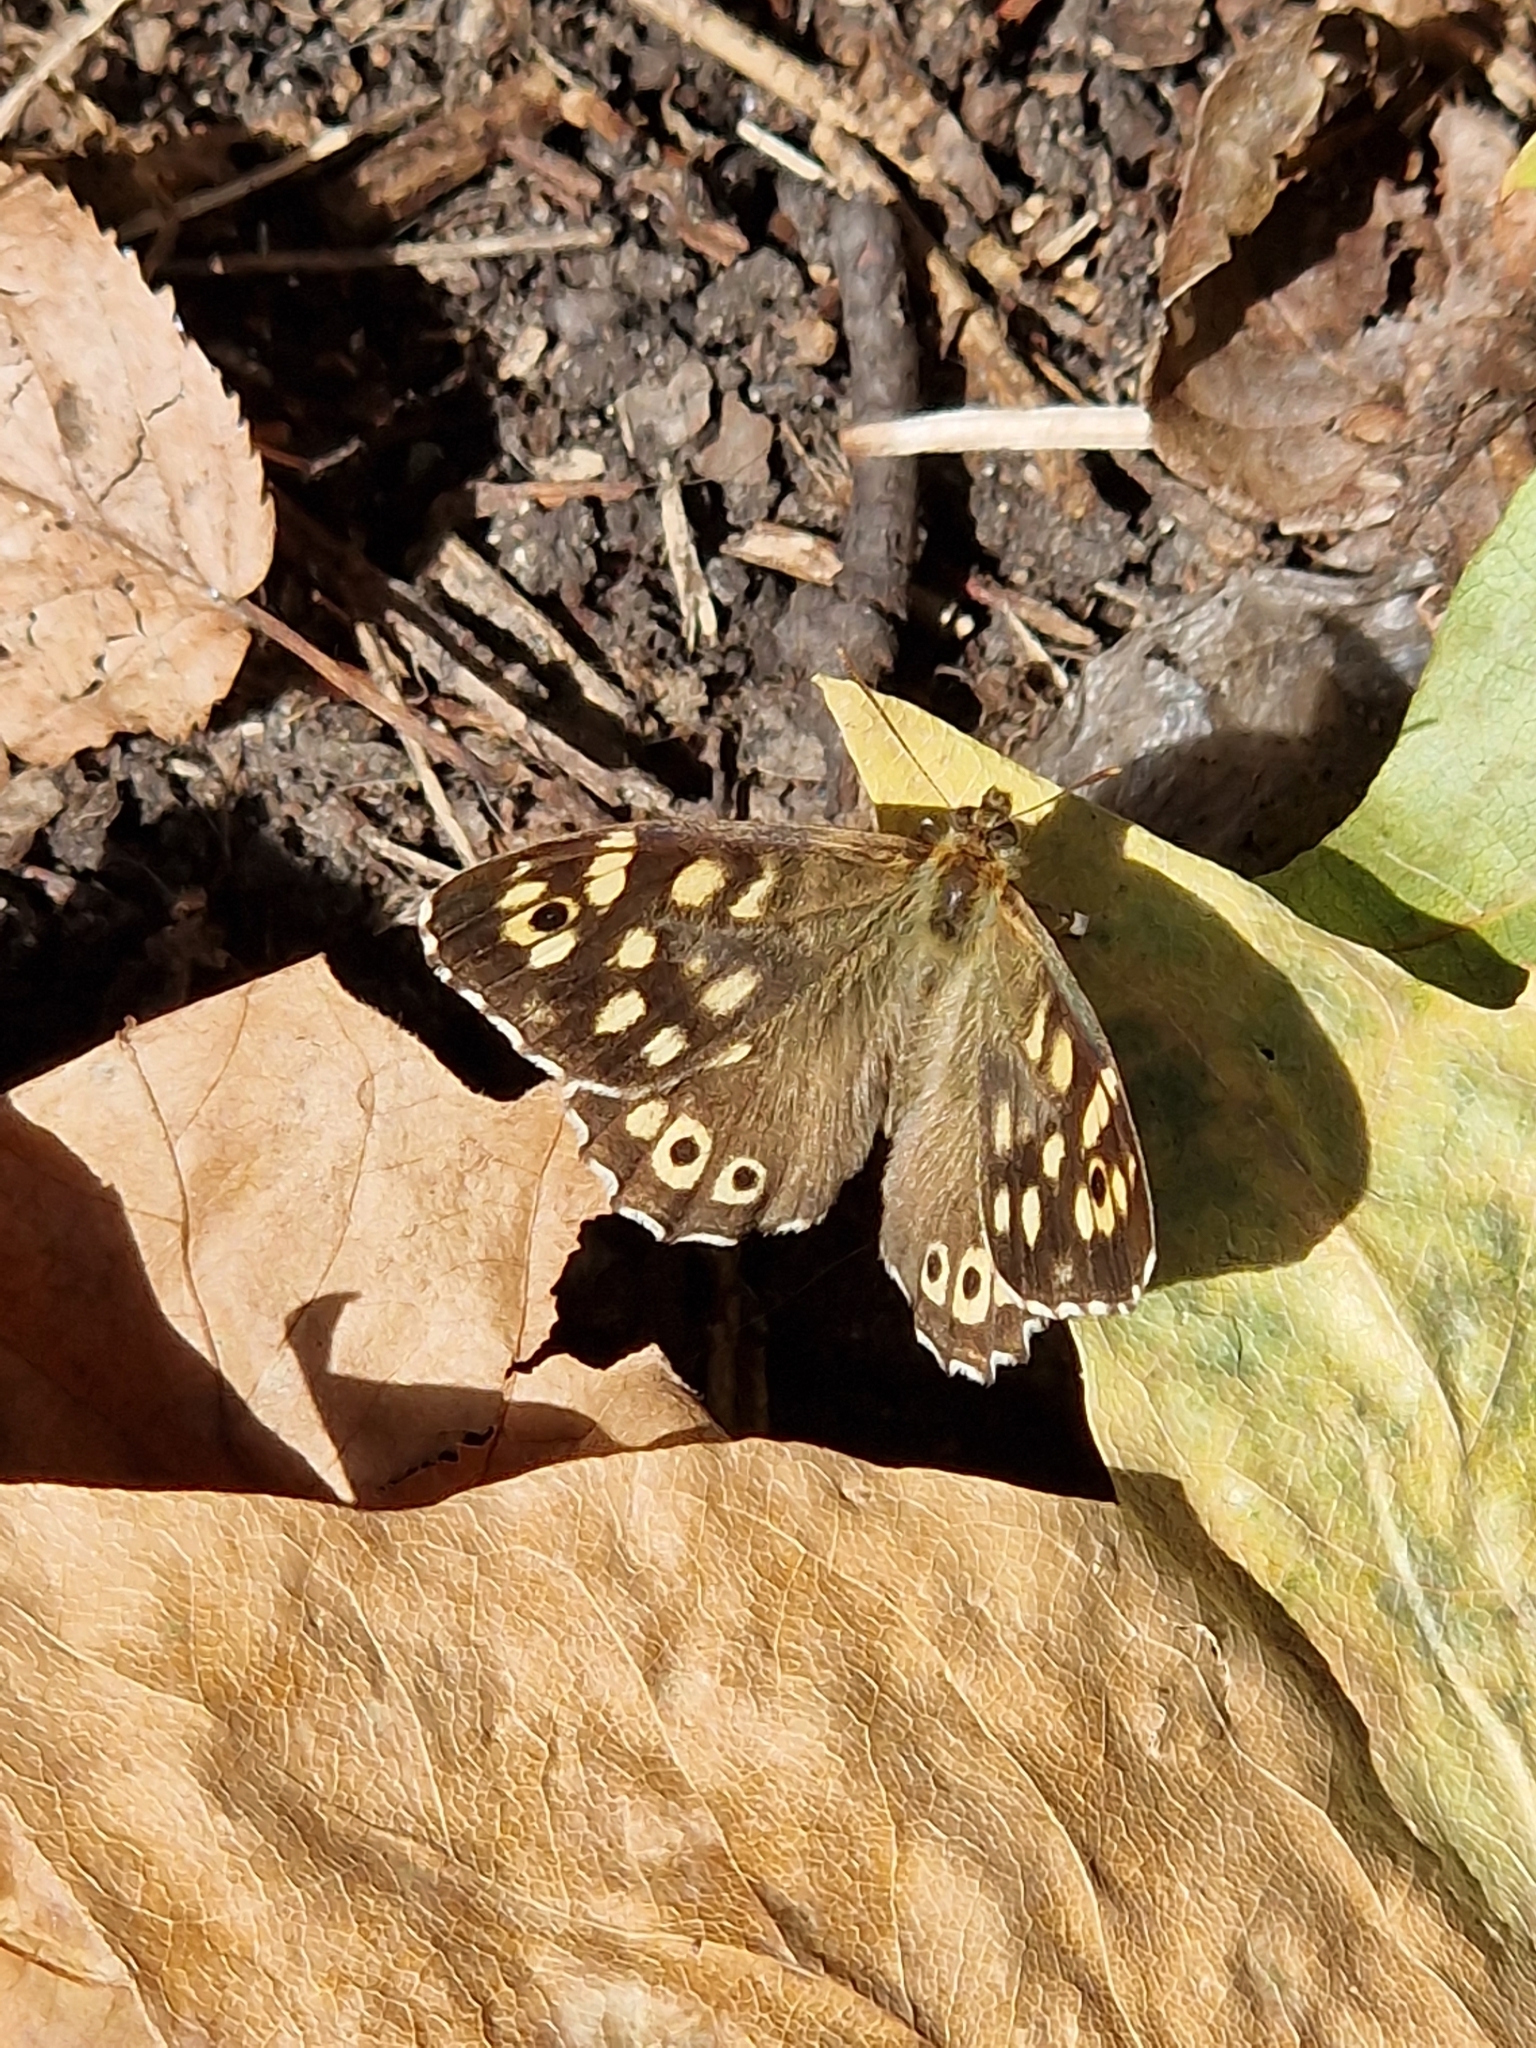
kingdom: Animalia
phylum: Arthropoda
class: Insecta
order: Lepidoptera
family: Nymphalidae
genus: Pararge
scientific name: Pararge aegeria
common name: Speckled wood
